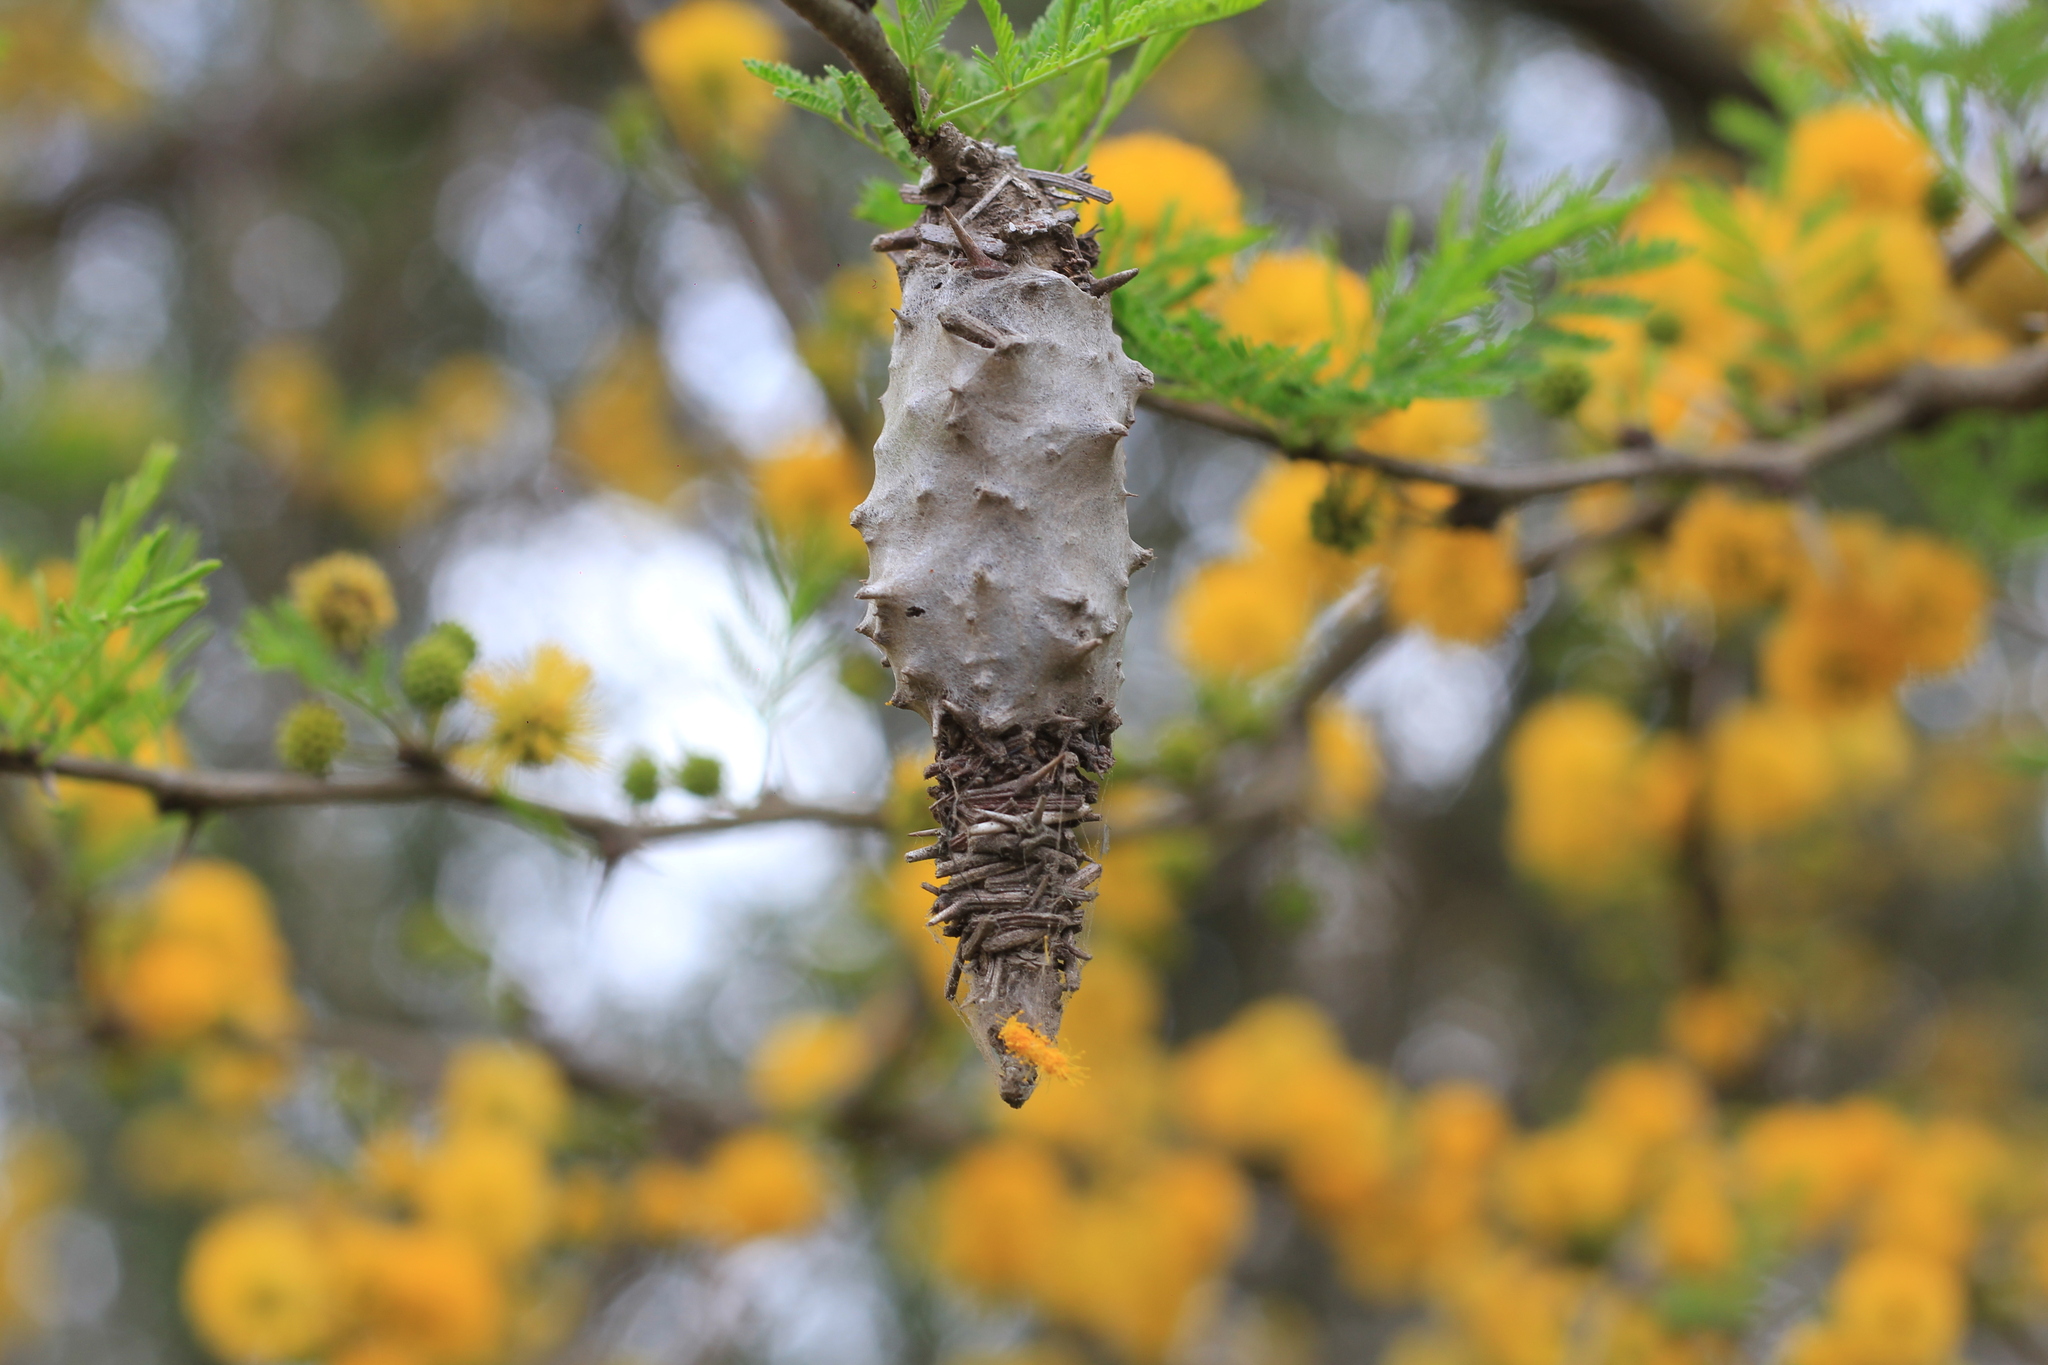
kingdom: Animalia
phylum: Arthropoda
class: Insecta
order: Lepidoptera
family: Psychidae
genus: Oiketicus
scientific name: Oiketicus
